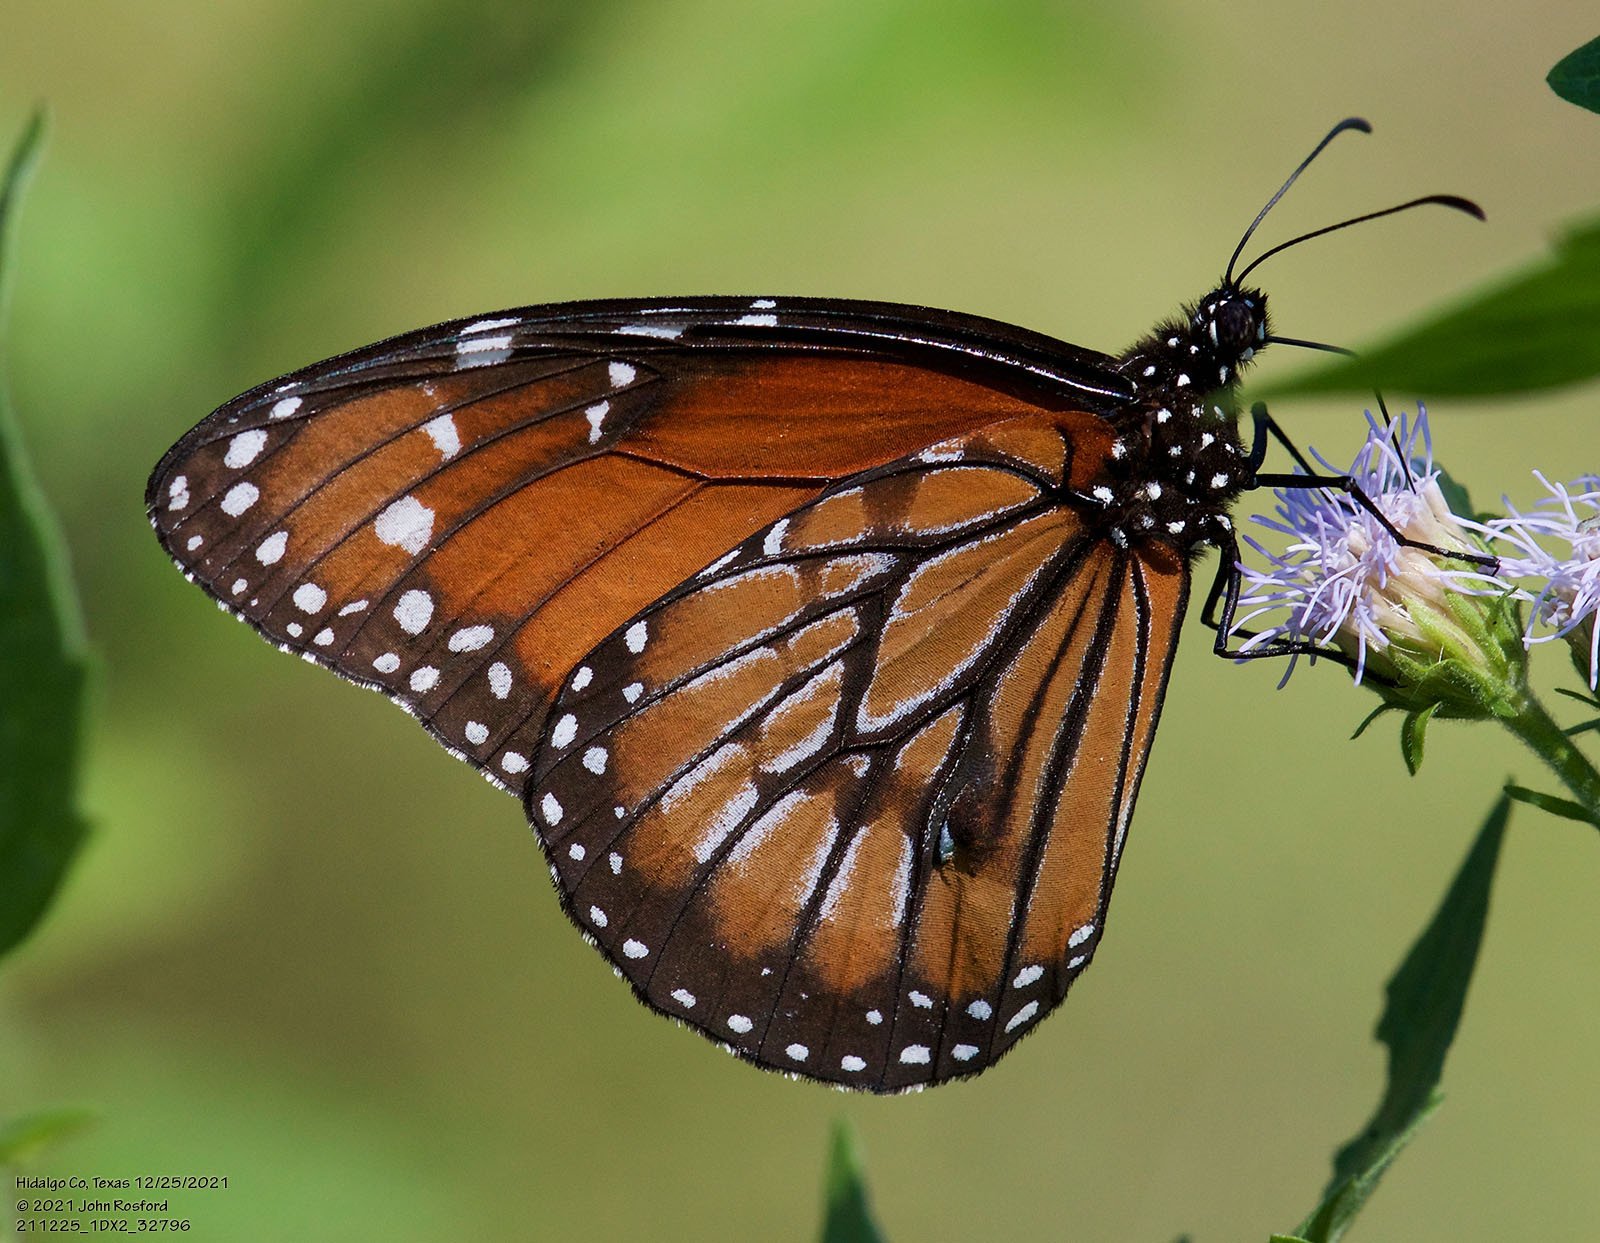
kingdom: Animalia
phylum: Arthropoda
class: Insecta
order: Lepidoptera
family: Nymphalidae
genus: Danaus
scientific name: Danaus eresimus
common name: Soldier
